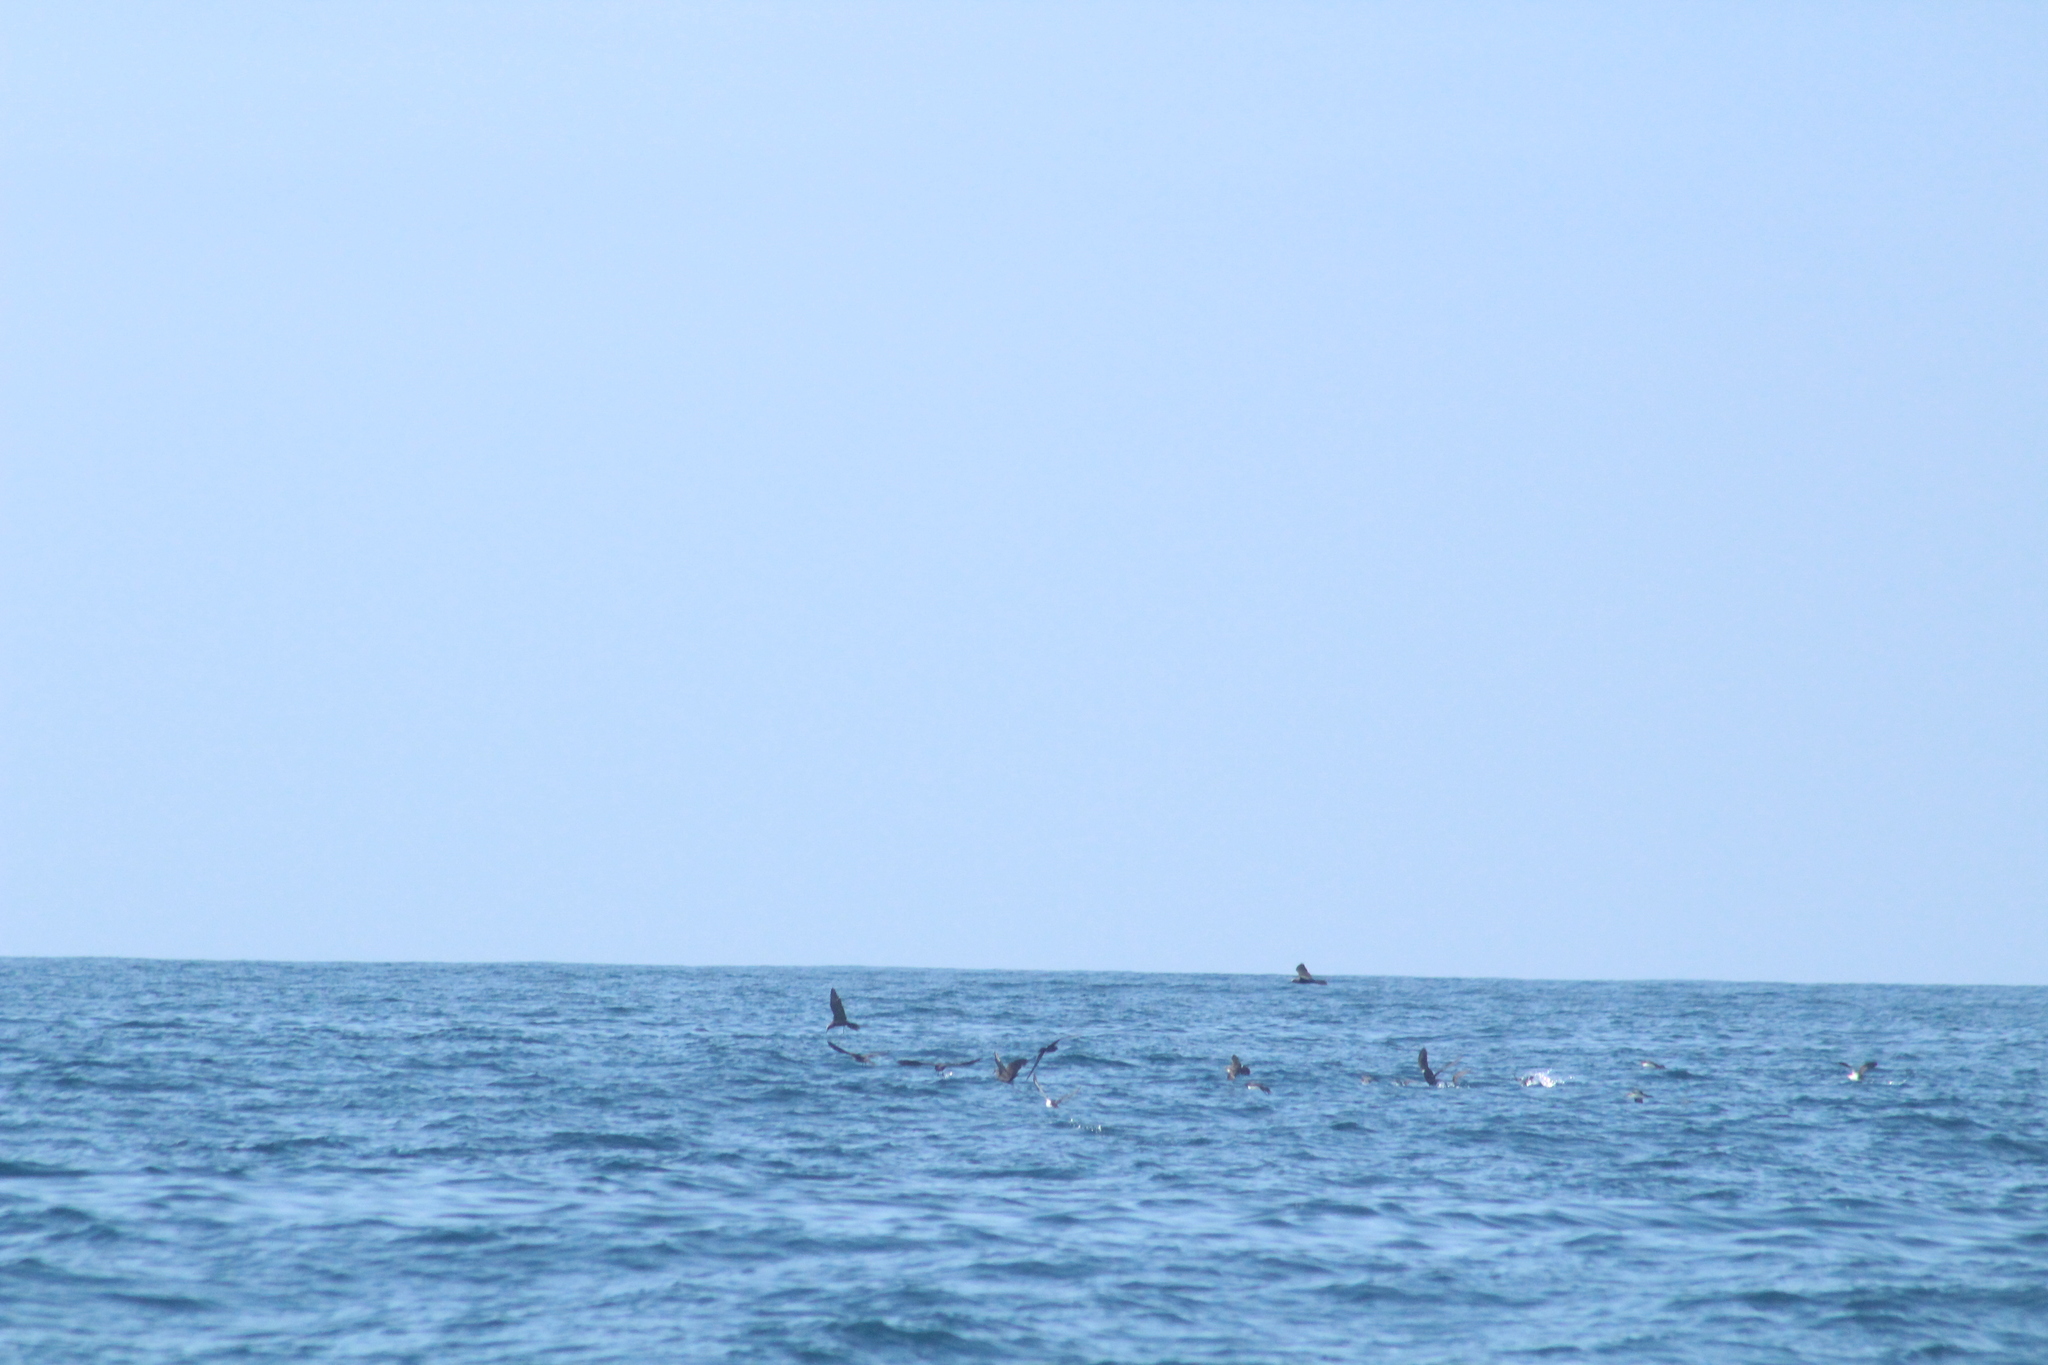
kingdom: Animalia
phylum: Chordata
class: Aves
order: Charadriiformes
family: Laridae
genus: Anous
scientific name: Anous stolidus
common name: Brown noddy
